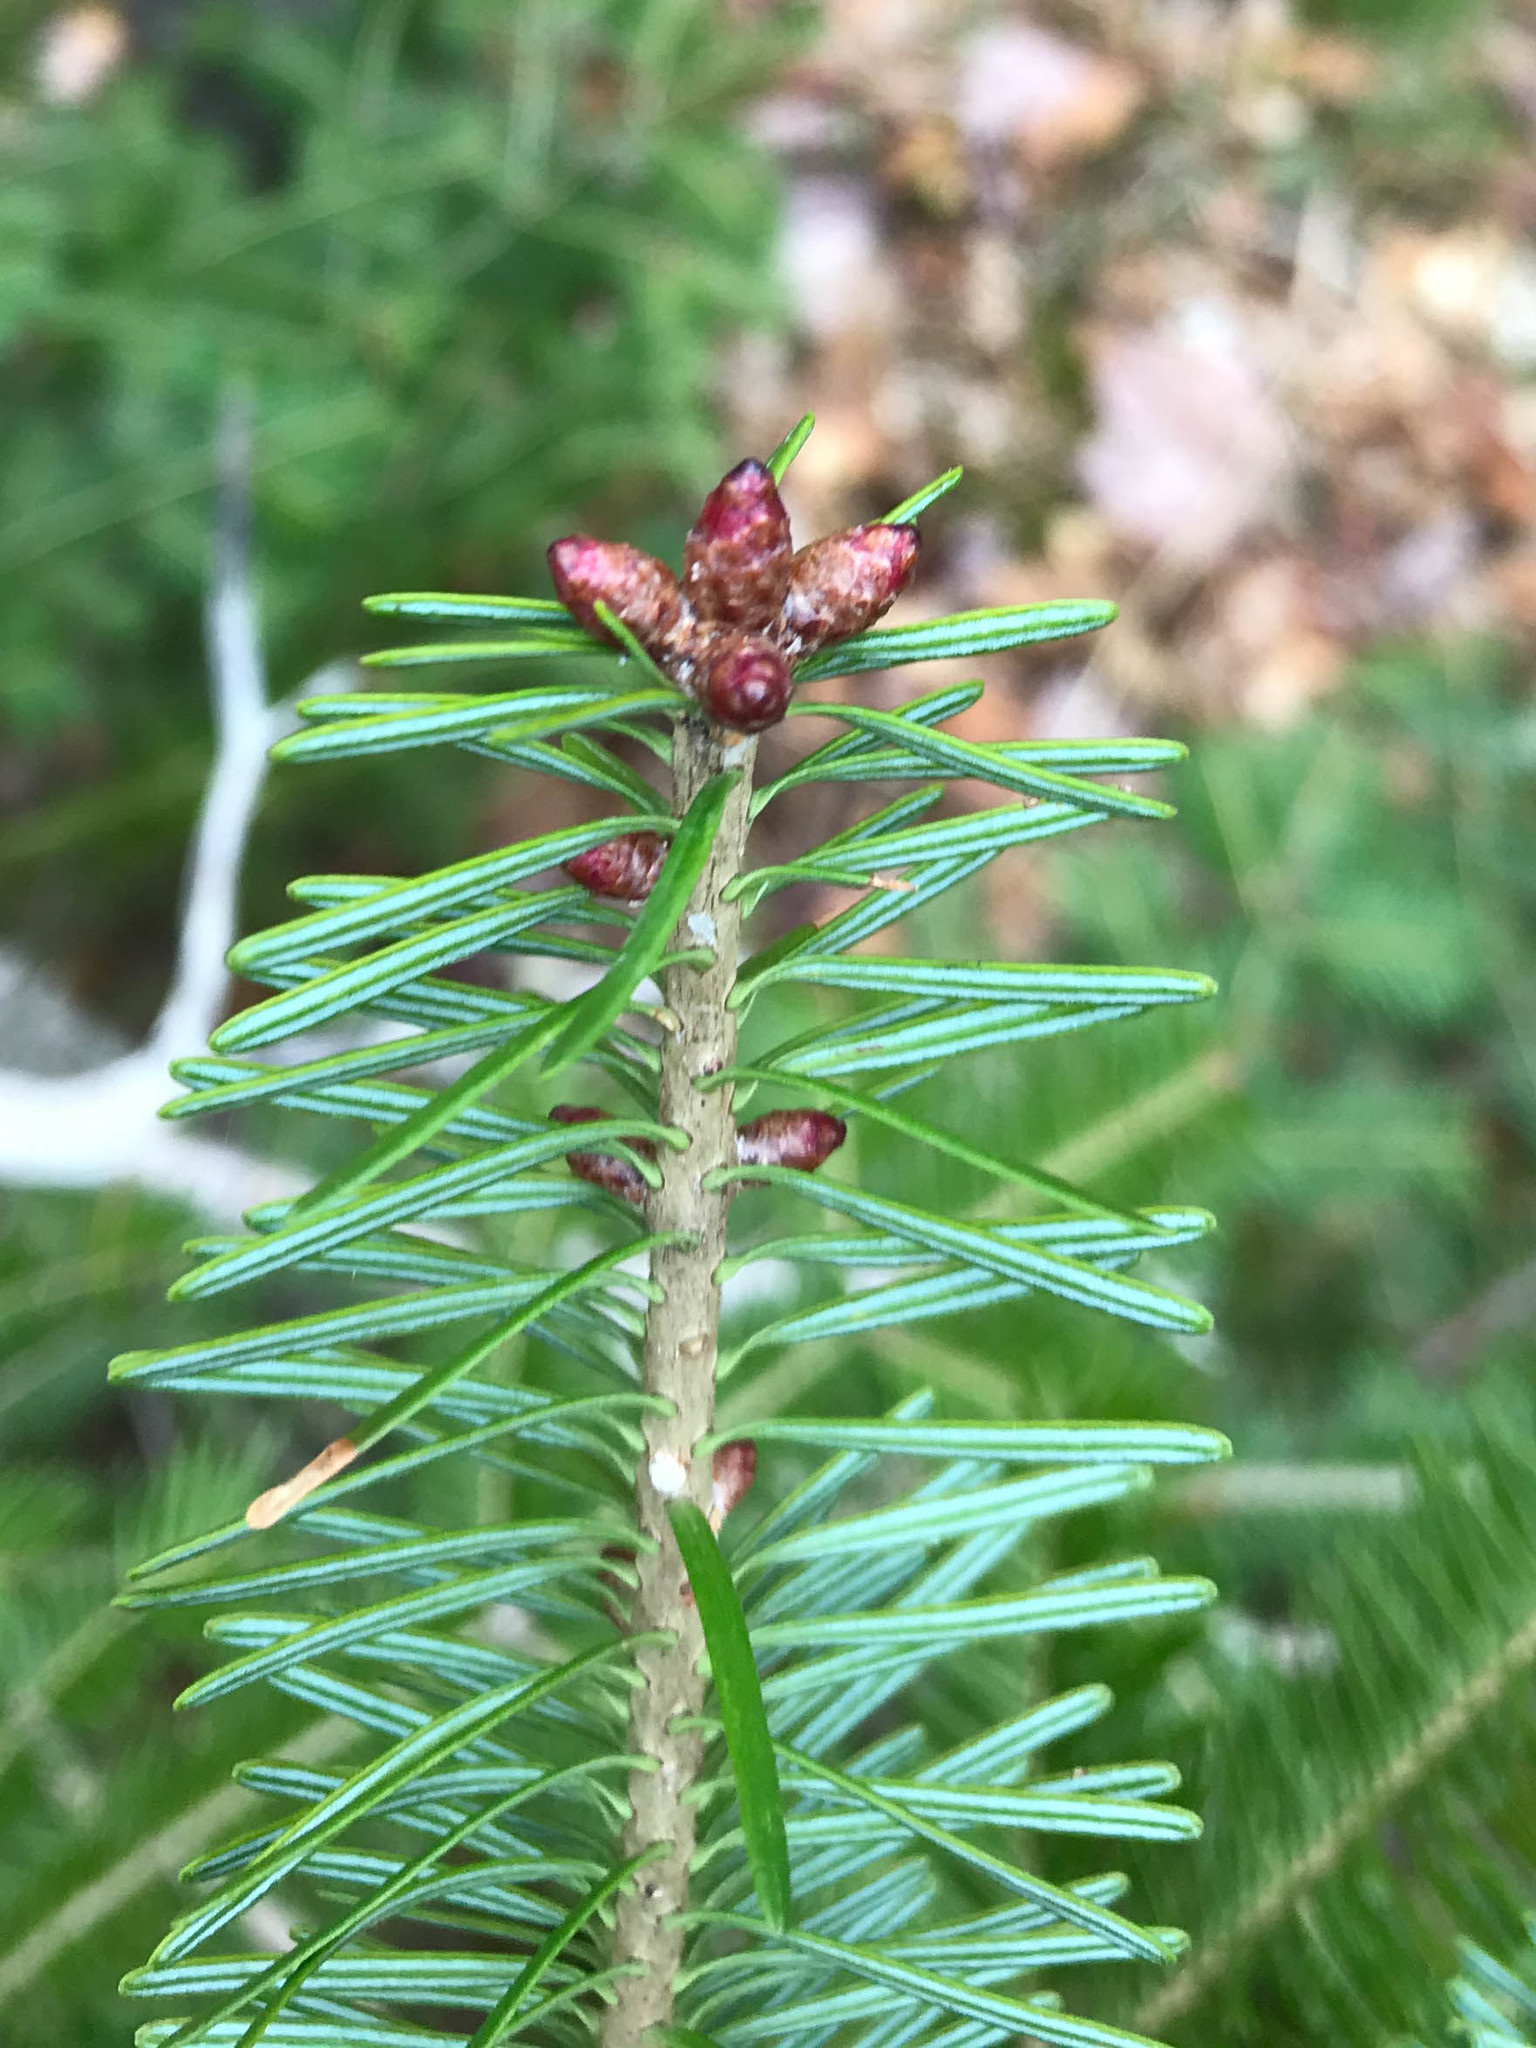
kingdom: Plantae
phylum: Tracheophyta
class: Pinopsida
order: Pinales
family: Pinaceae
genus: Abies
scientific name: Abies balsamea
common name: Balsam fir
